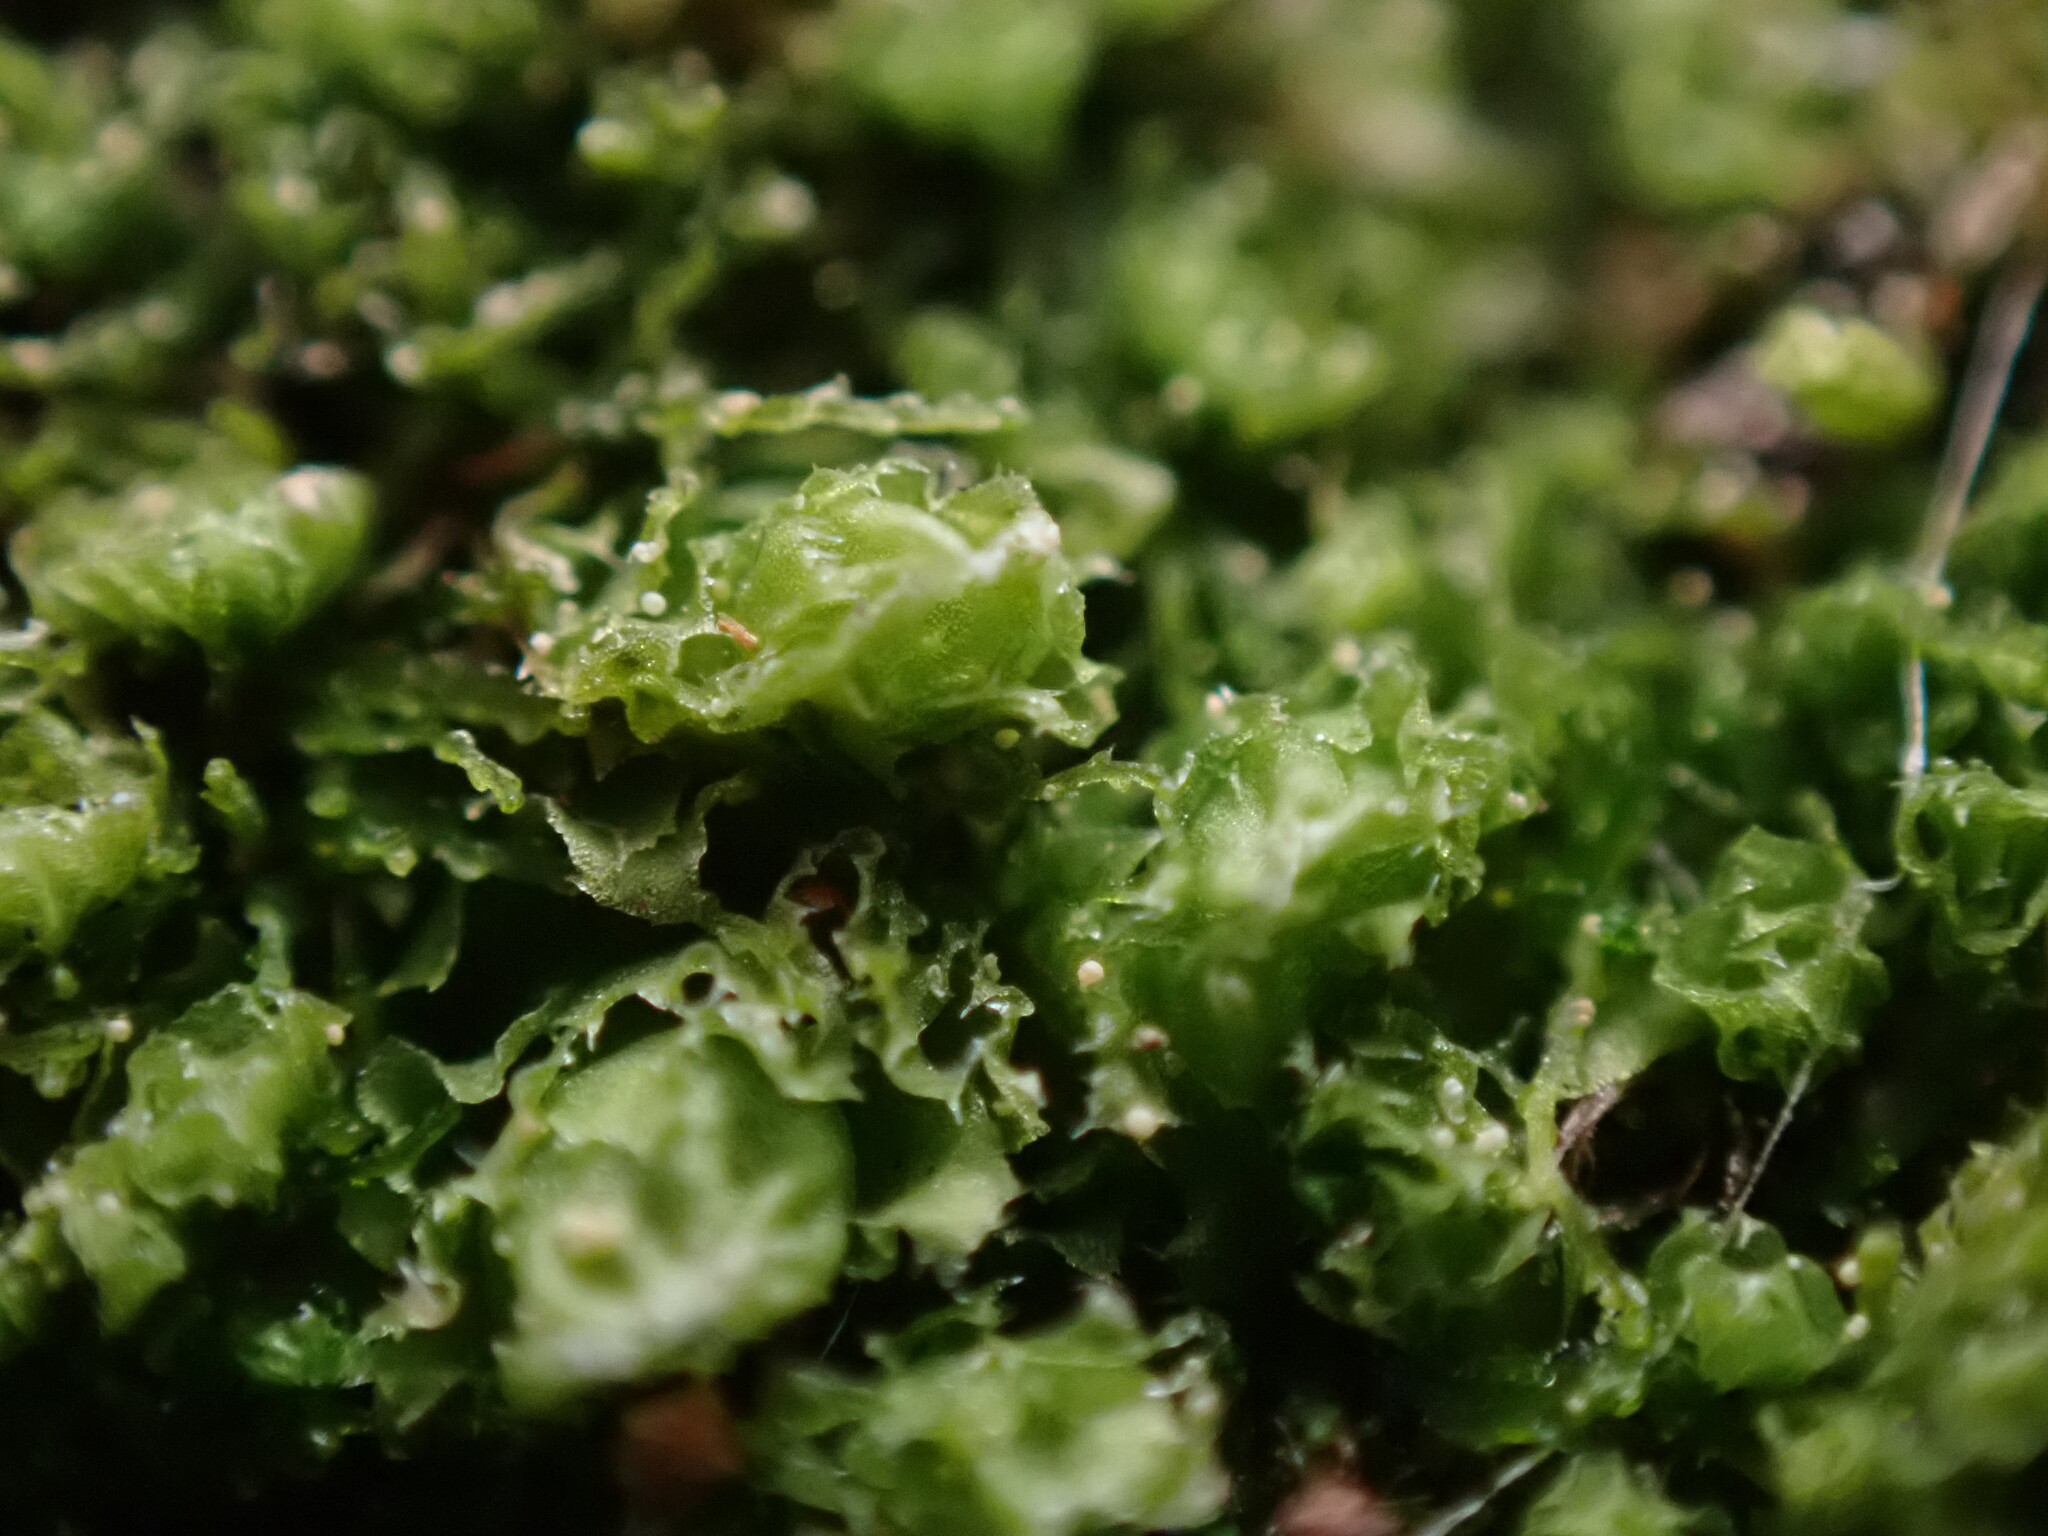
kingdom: Plantae
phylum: Marchantiophyta
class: Jungermanniopsida
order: Jungermanniales
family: Scapaniaceae
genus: Schistochilopsis
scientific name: Schistochilopsis incisa
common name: Jagged notchwort
